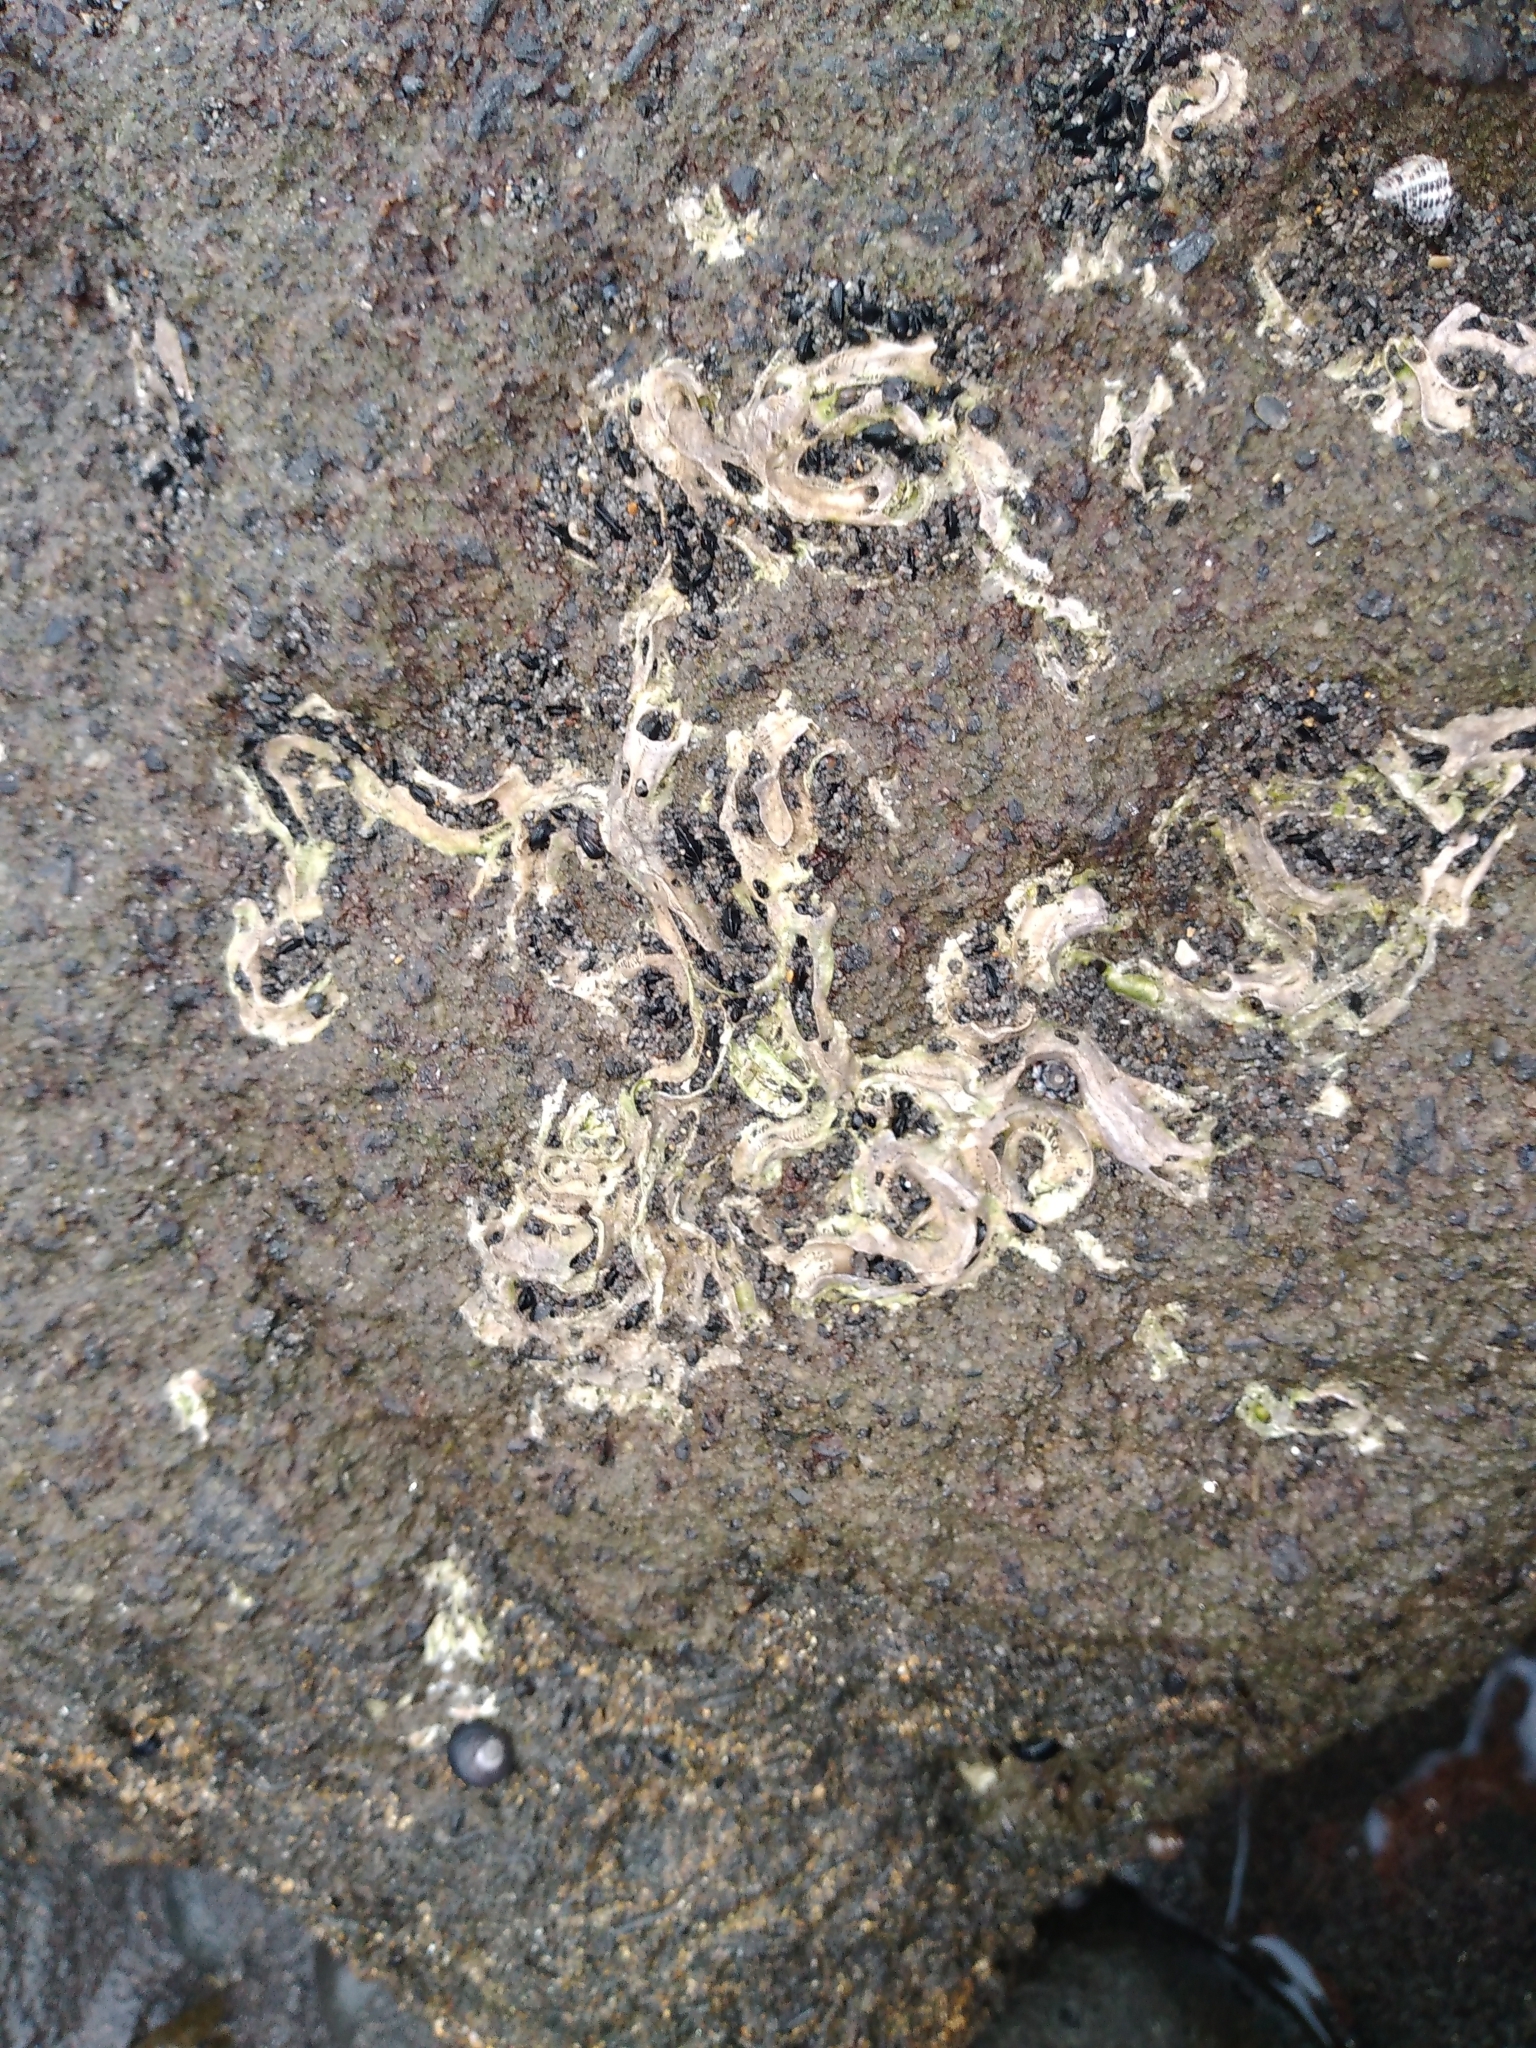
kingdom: Animalia
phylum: Annelida
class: Polychaeta
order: Sabellida
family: Serpulidae
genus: Spirobranchus
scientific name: Spirobranchus cariniferus
